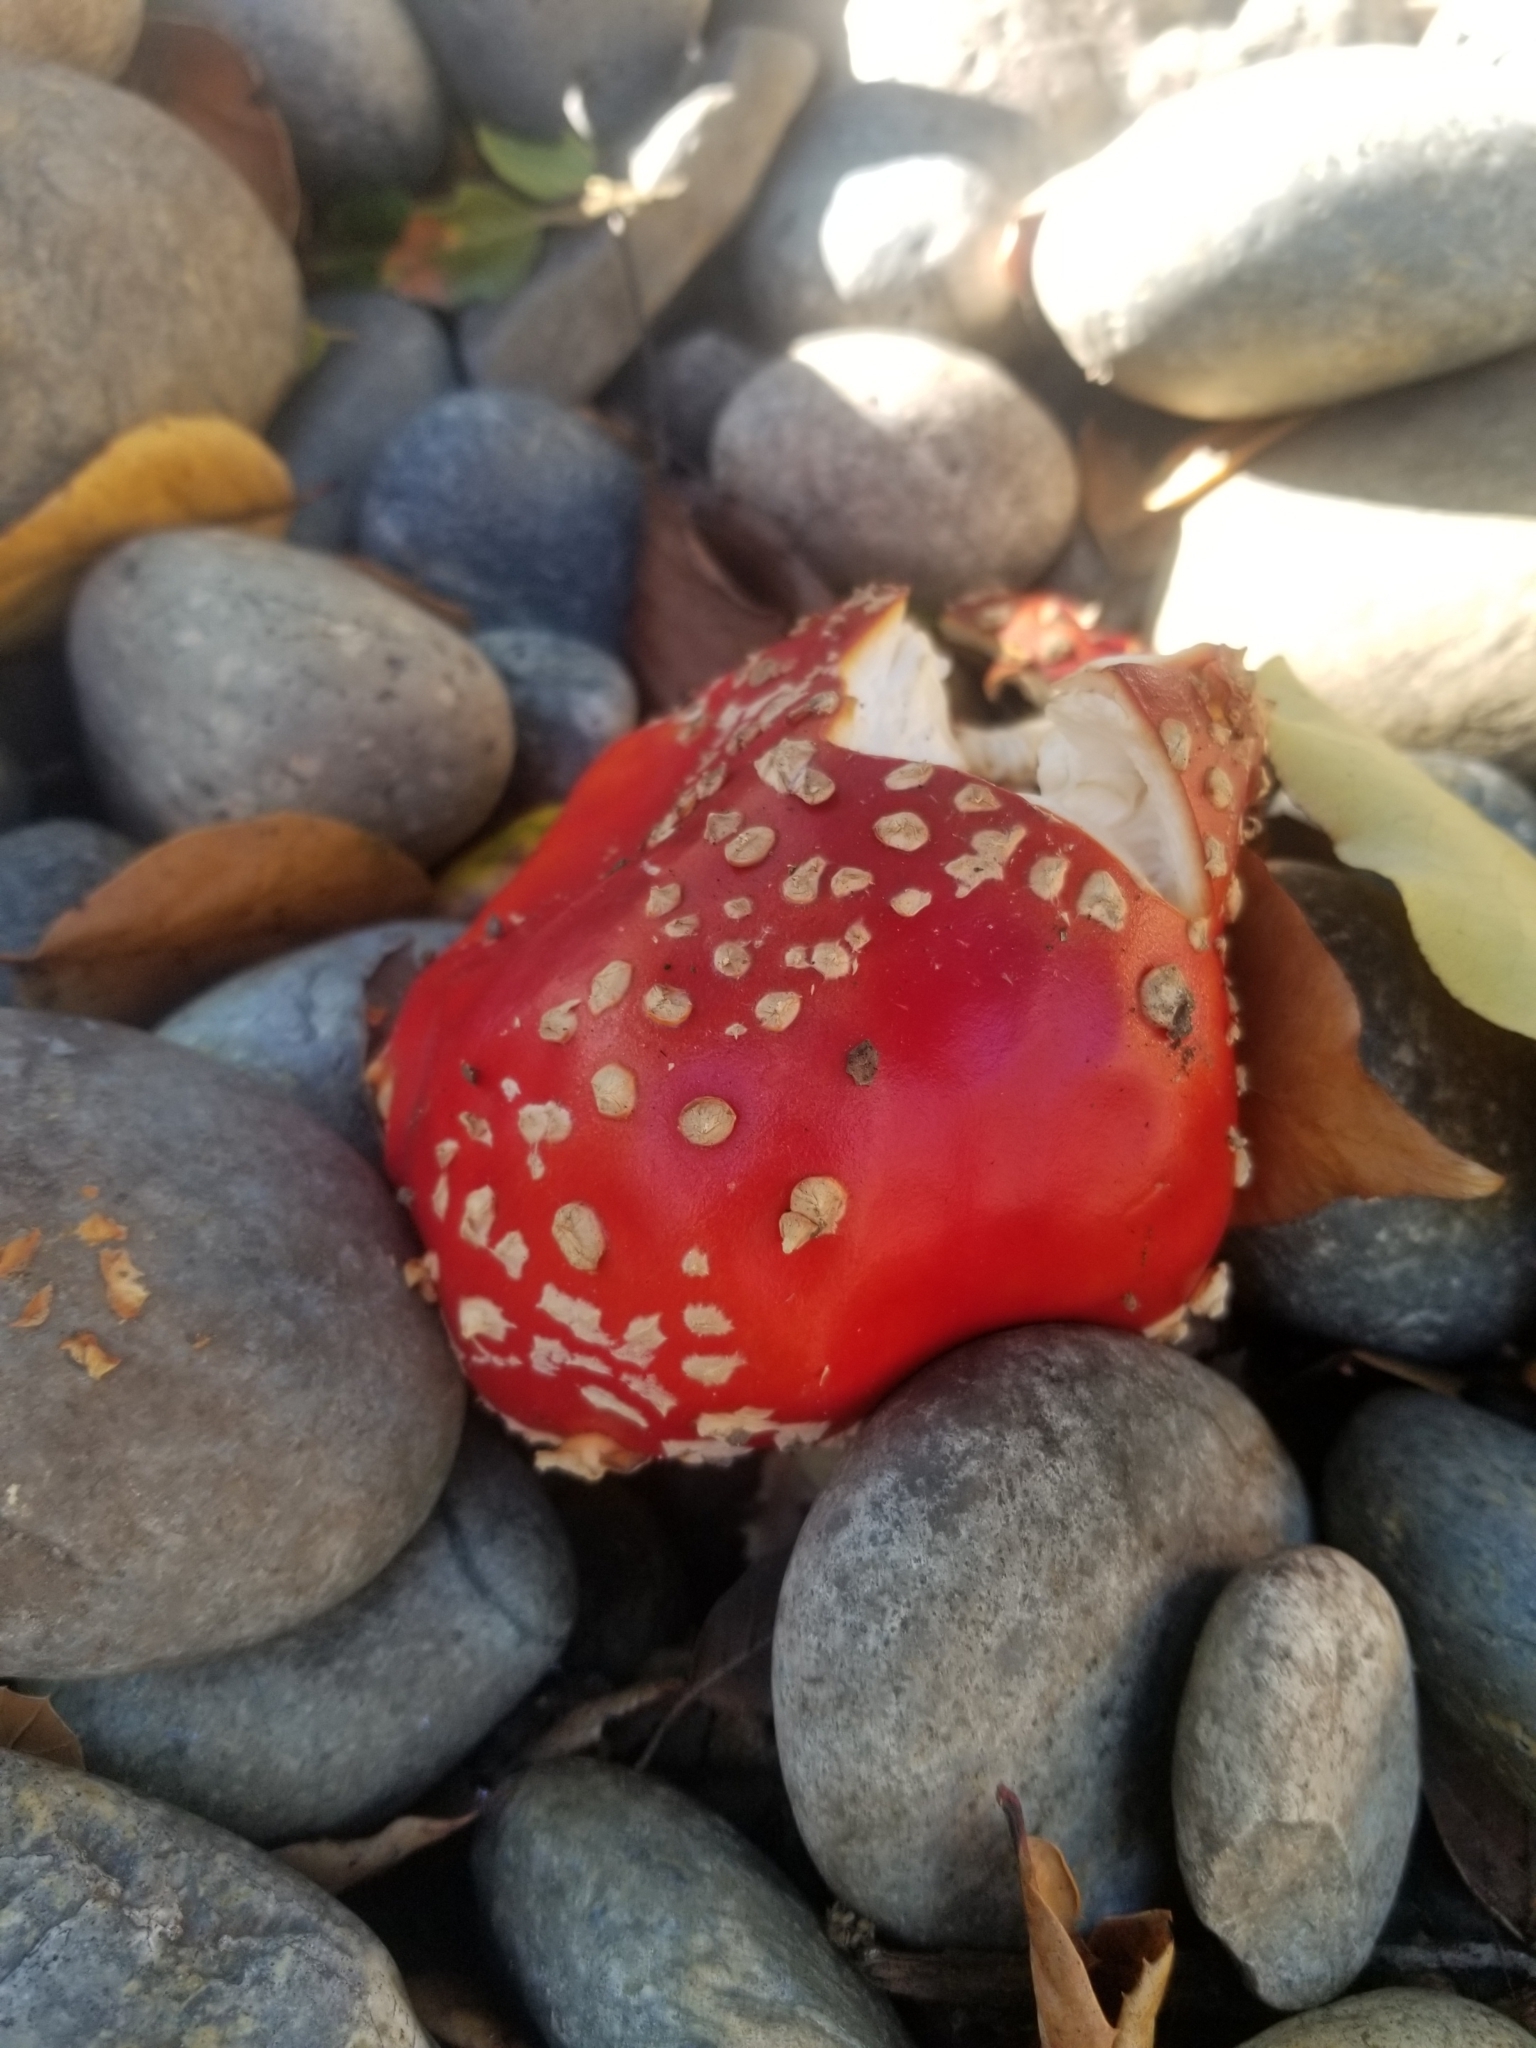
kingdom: Fungi
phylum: Basidiomycota
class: Agaricomycetes
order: Agaricales
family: Amanitaceae
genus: Amanita
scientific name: Amanita muscaria
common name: Fly agaric
